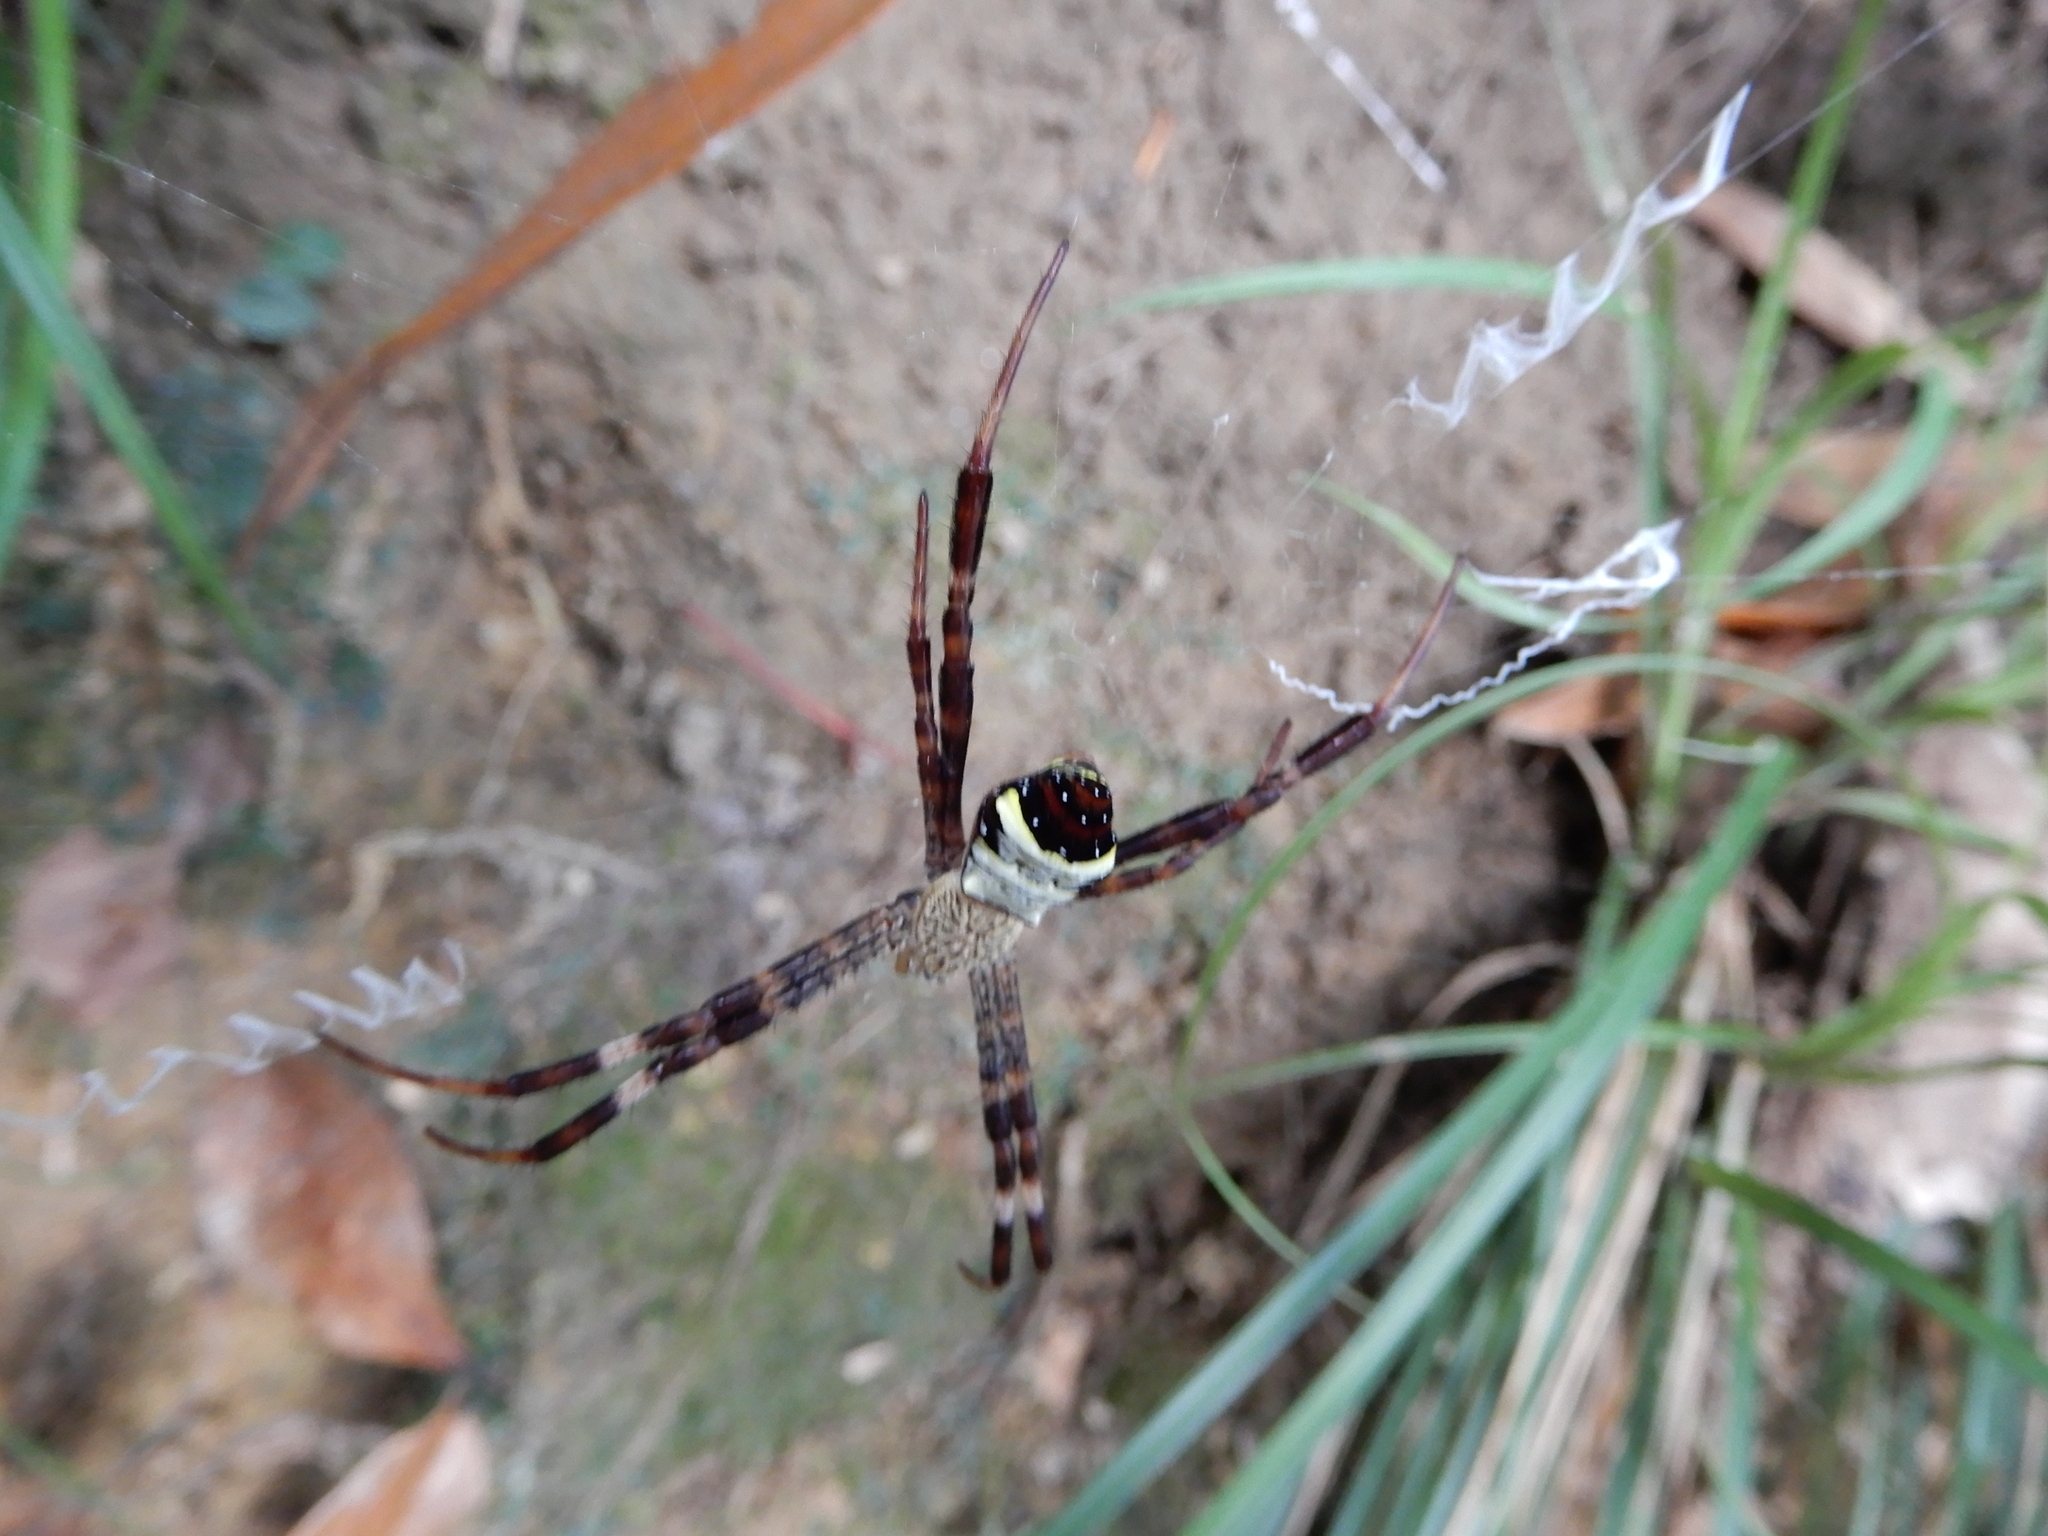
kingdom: Animalia
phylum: Arthropoda
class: Arachnida
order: Araneae
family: Araneidae
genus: Argiope
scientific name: Argiope vietnamensis
